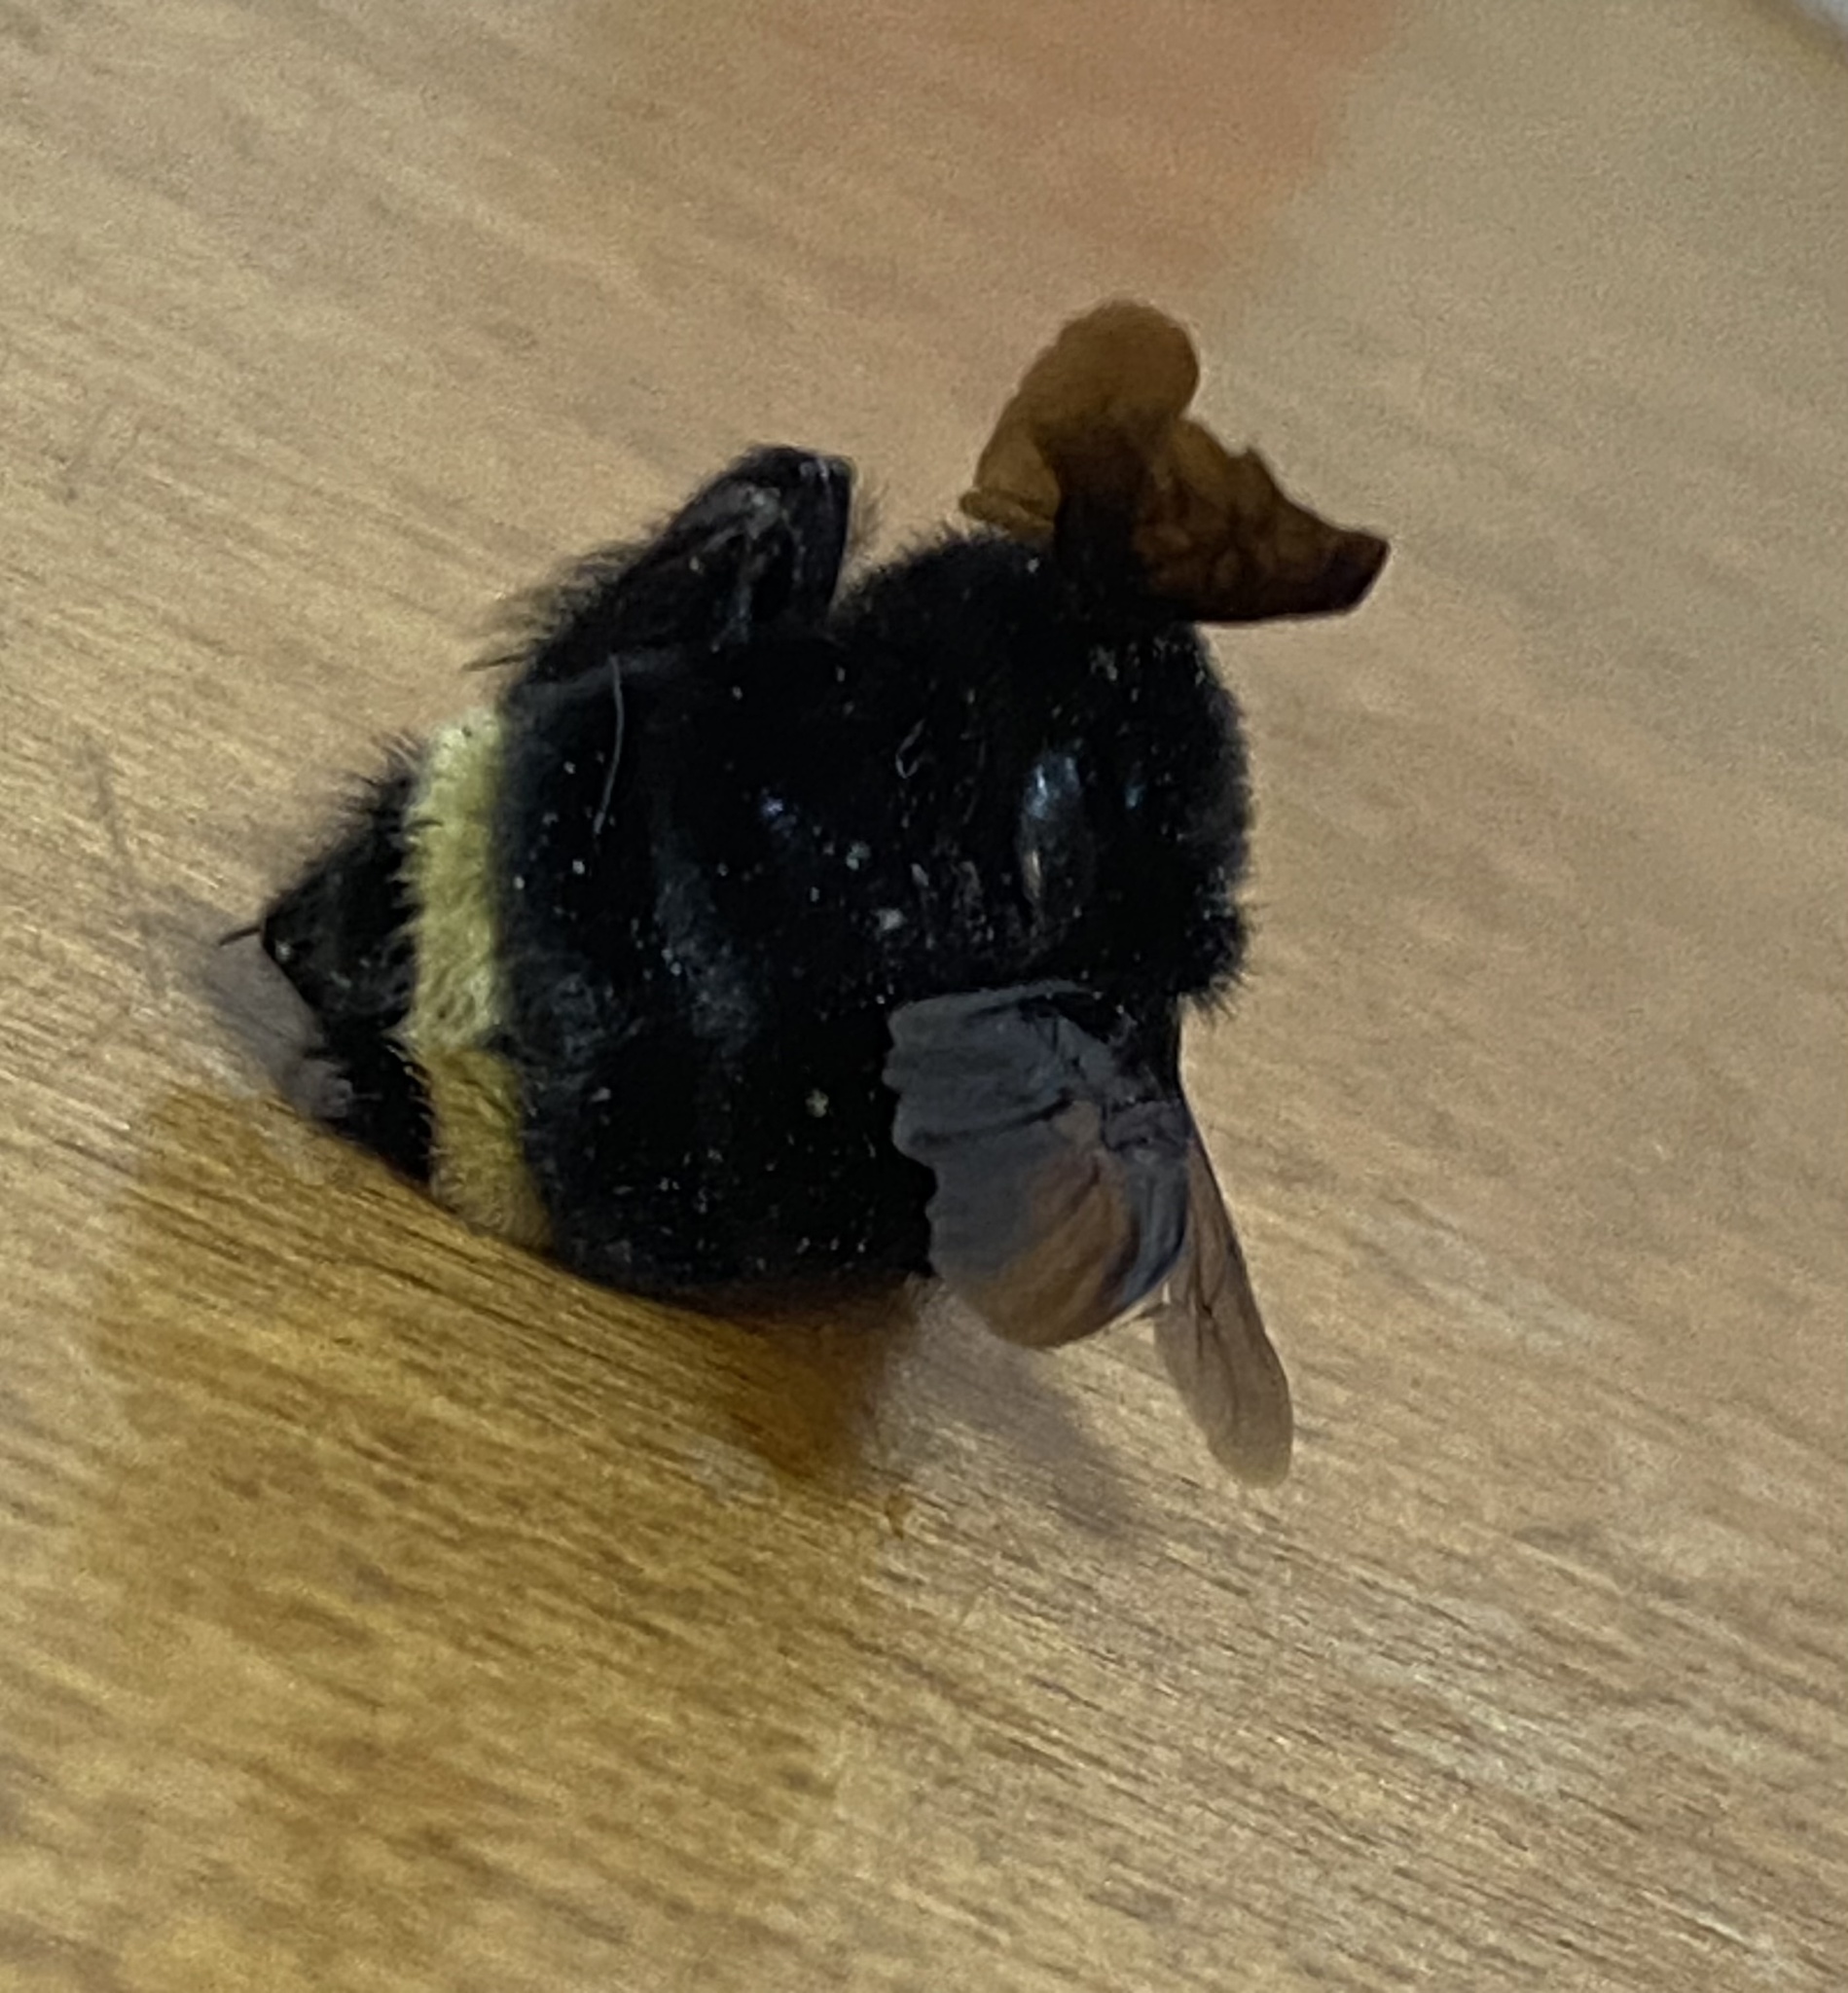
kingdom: Animalia
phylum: Arthropoda
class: Insecta
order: Hymenoptera
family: Apidae
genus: Bombus
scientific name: Bombus vosnesenskii
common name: Vosnesensky bumble bee
